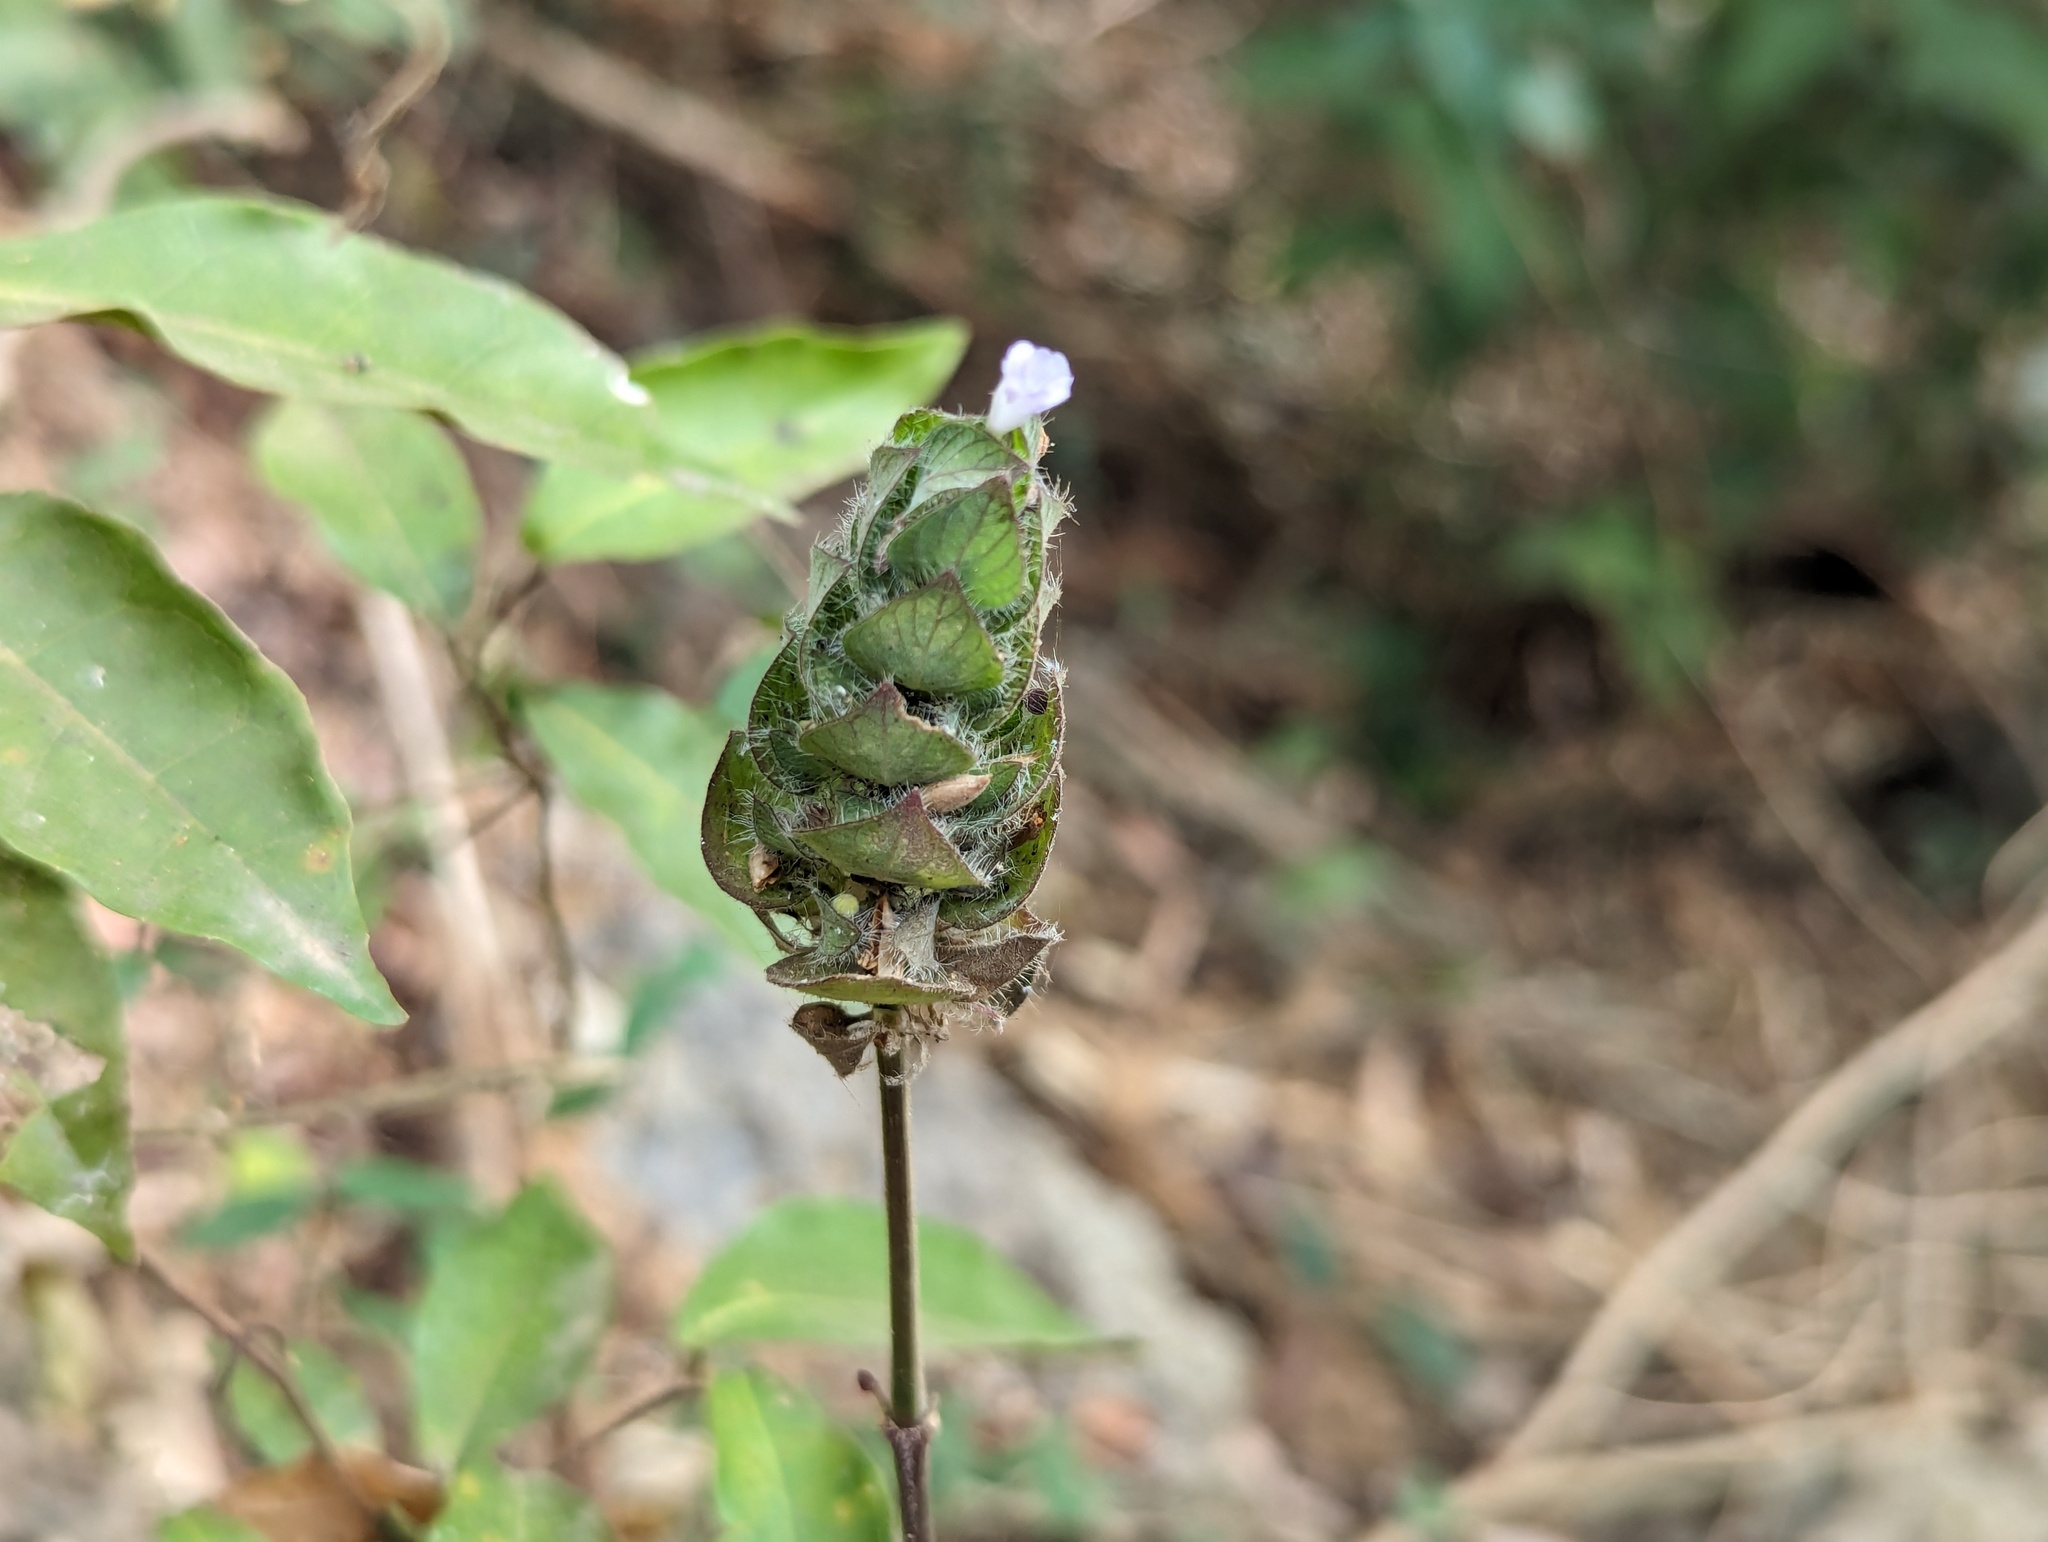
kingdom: Plantae
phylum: Tracheophyta
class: Magnoliopsida
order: Lamiales
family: Acanthaceae
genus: Ruellia
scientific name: Ruellia blechum
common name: Browne's blechum
